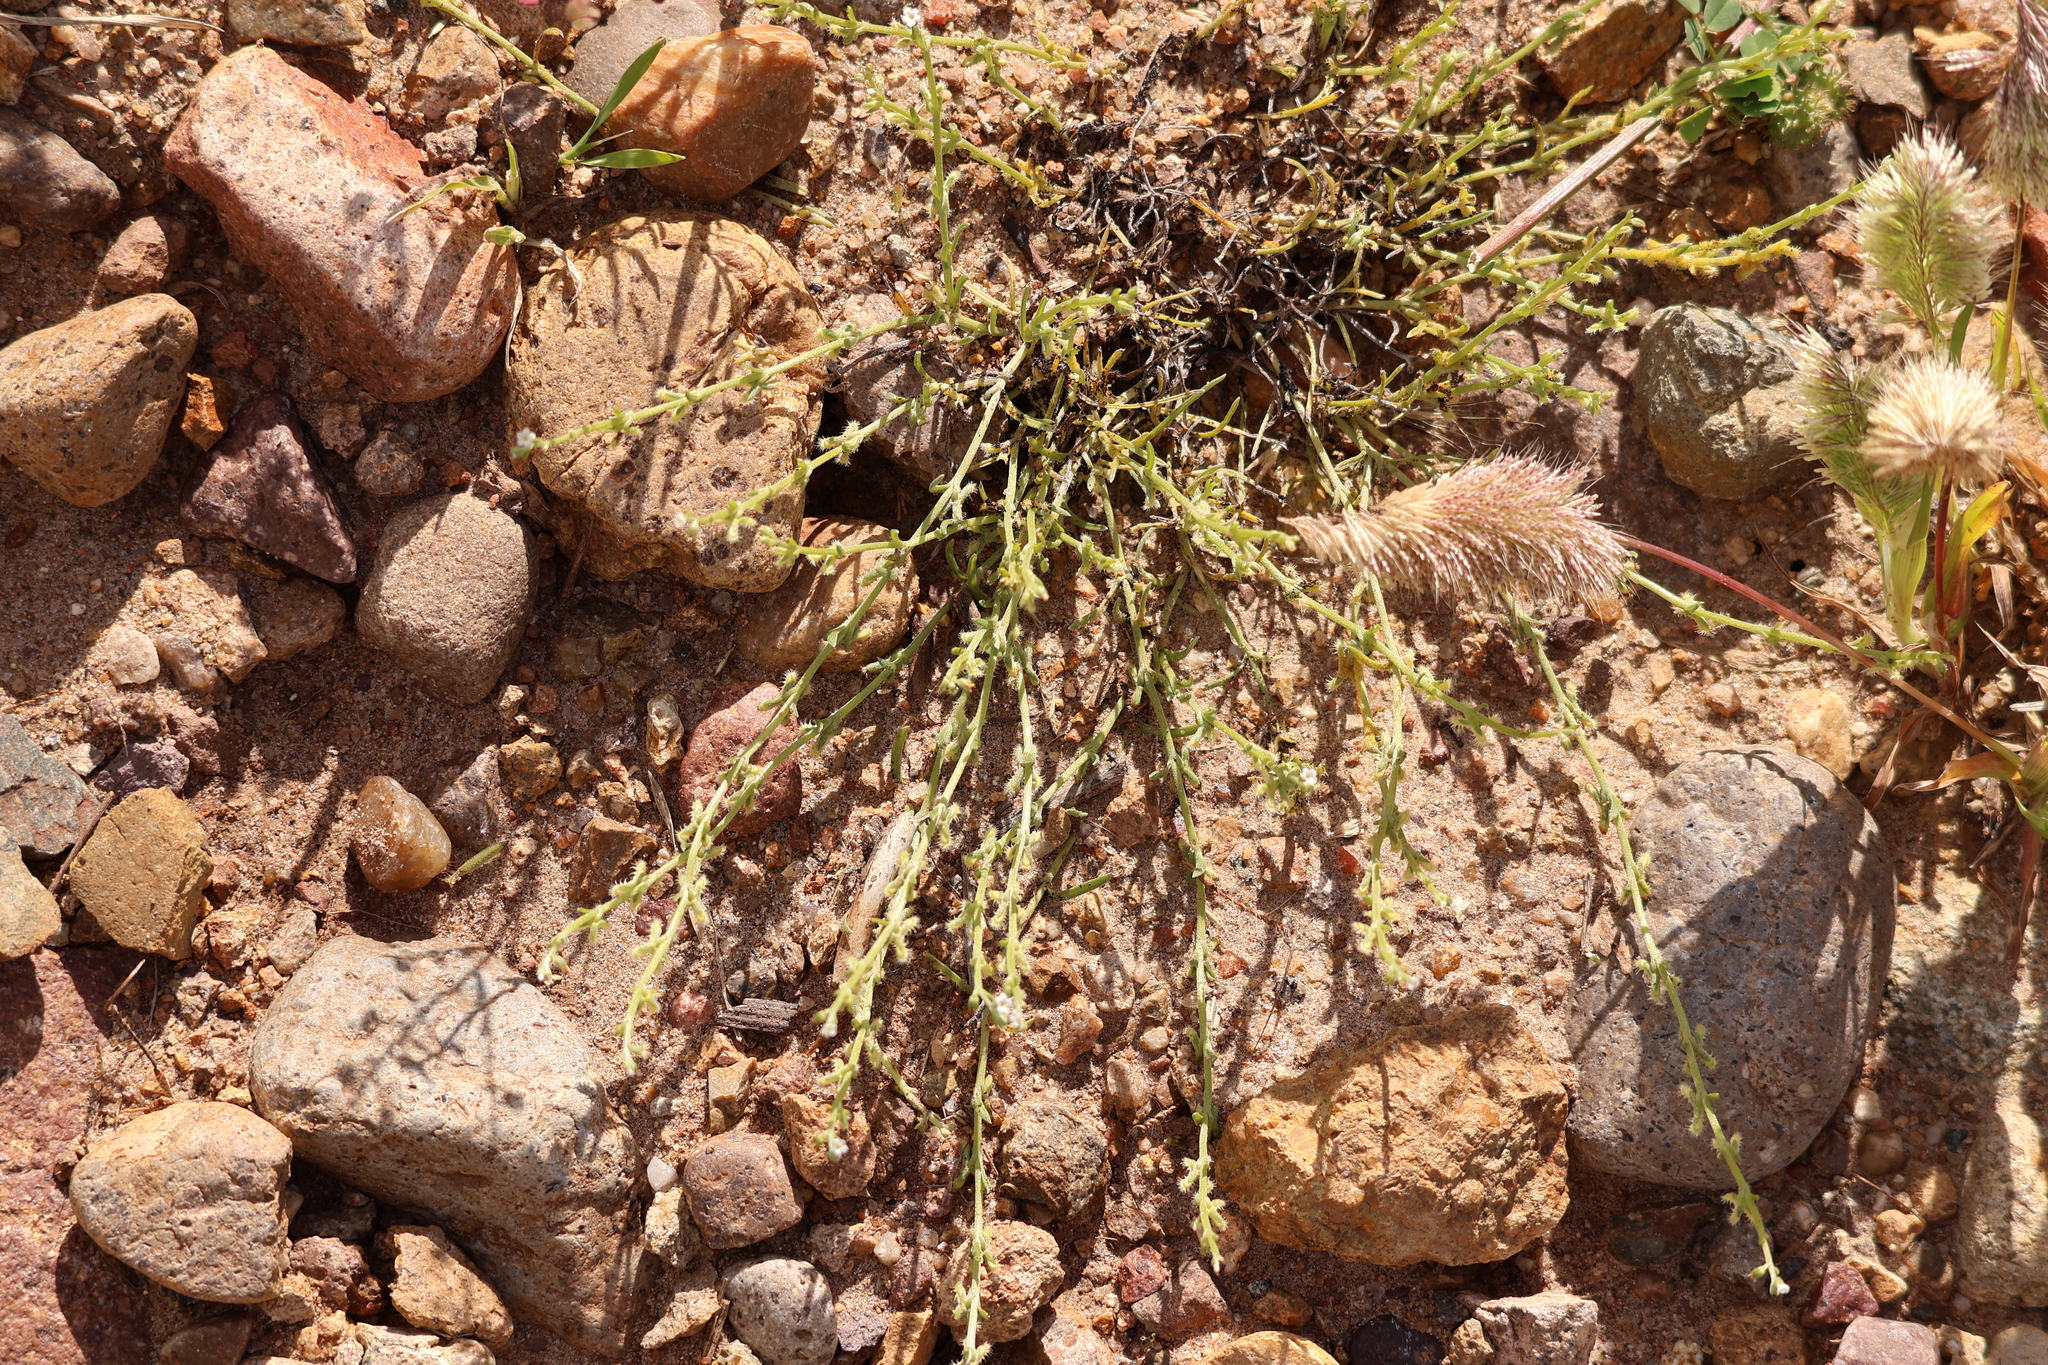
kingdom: Plantae
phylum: Tracheophyta
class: Magnoliopsida
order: Boraginales
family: Boraginaceae
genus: Pectocarya
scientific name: Pectocarya linearis
